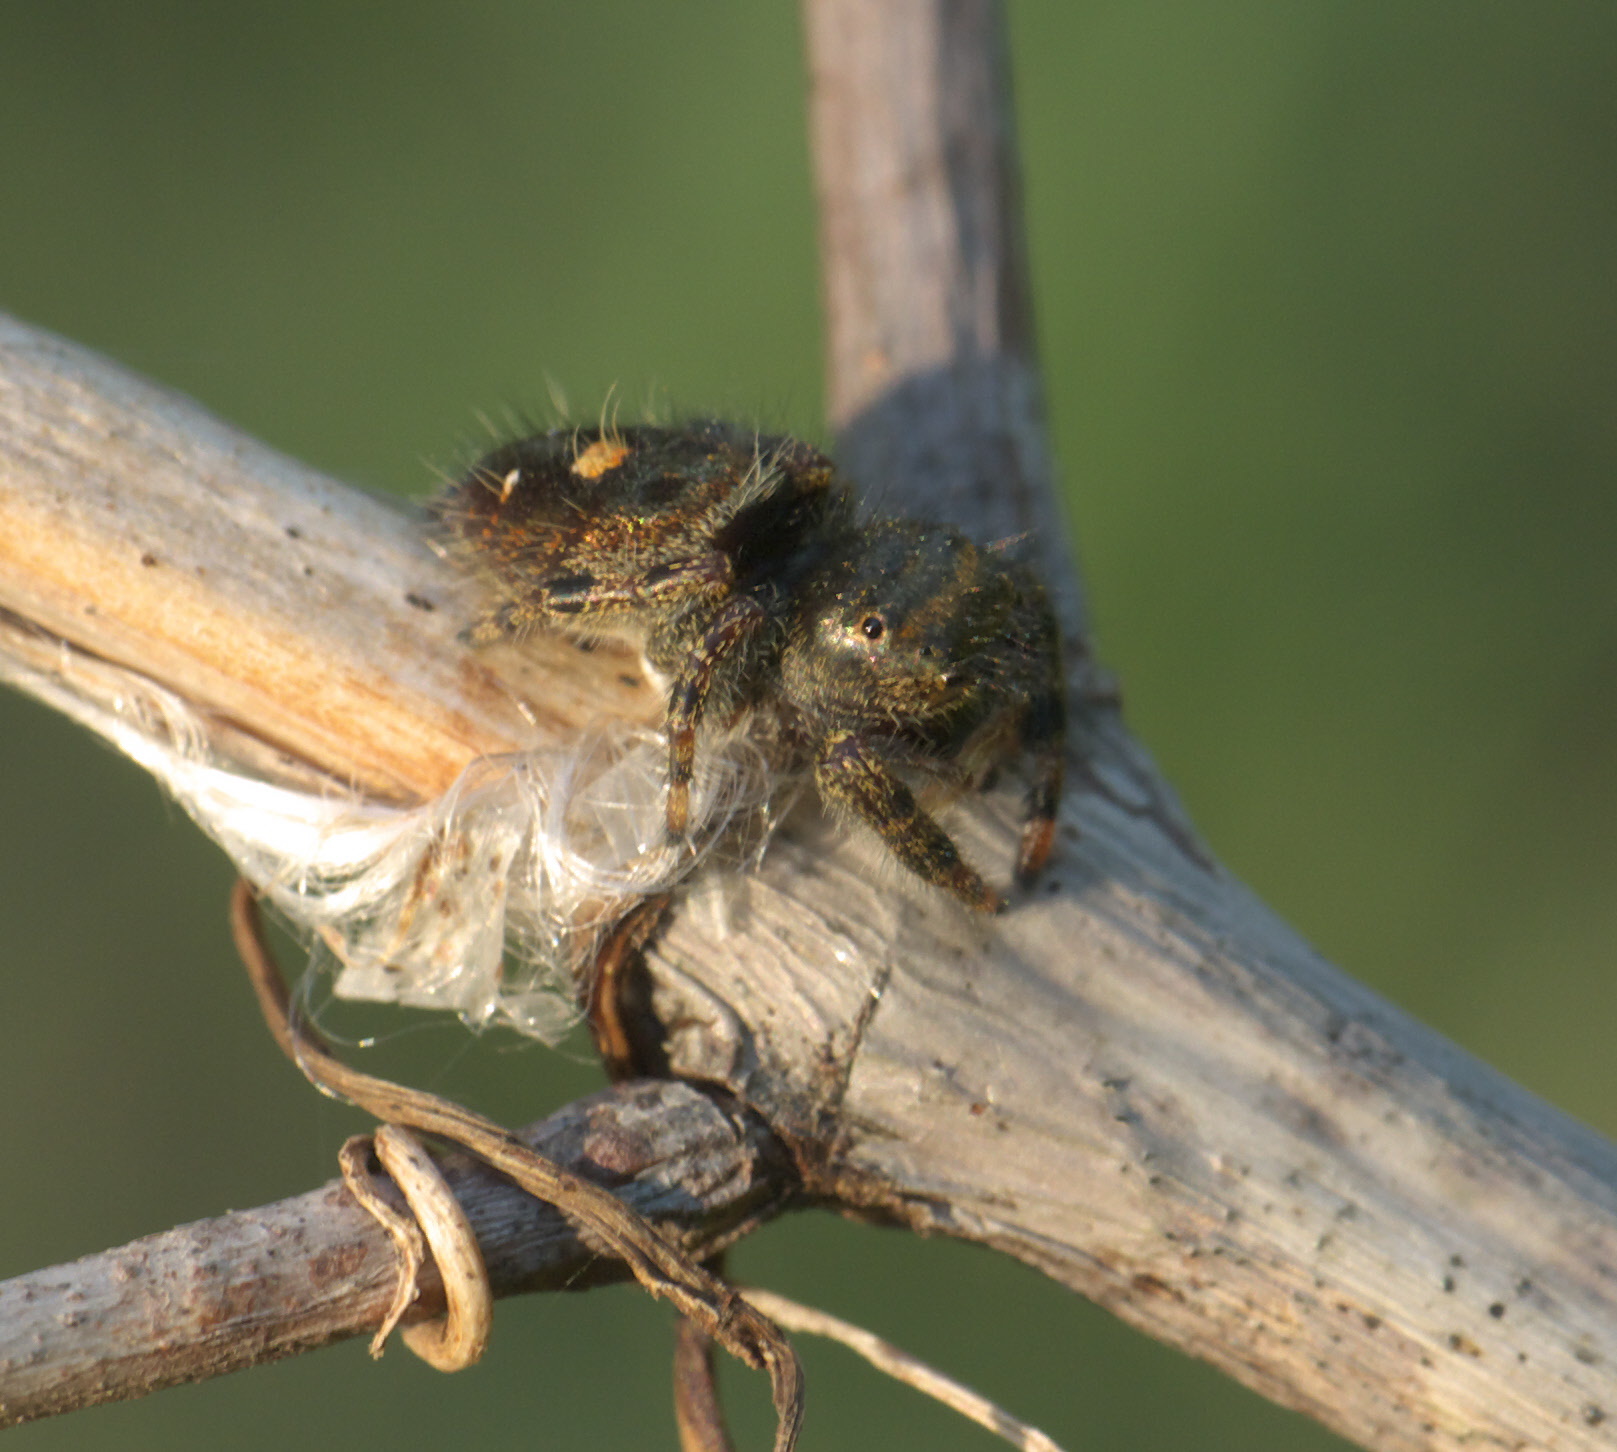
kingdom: Animalia
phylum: Arthropoda
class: Arachnida
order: Araneae
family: Salticidae
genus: Phidippus
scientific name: Phidippus audax
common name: Bold jumper
